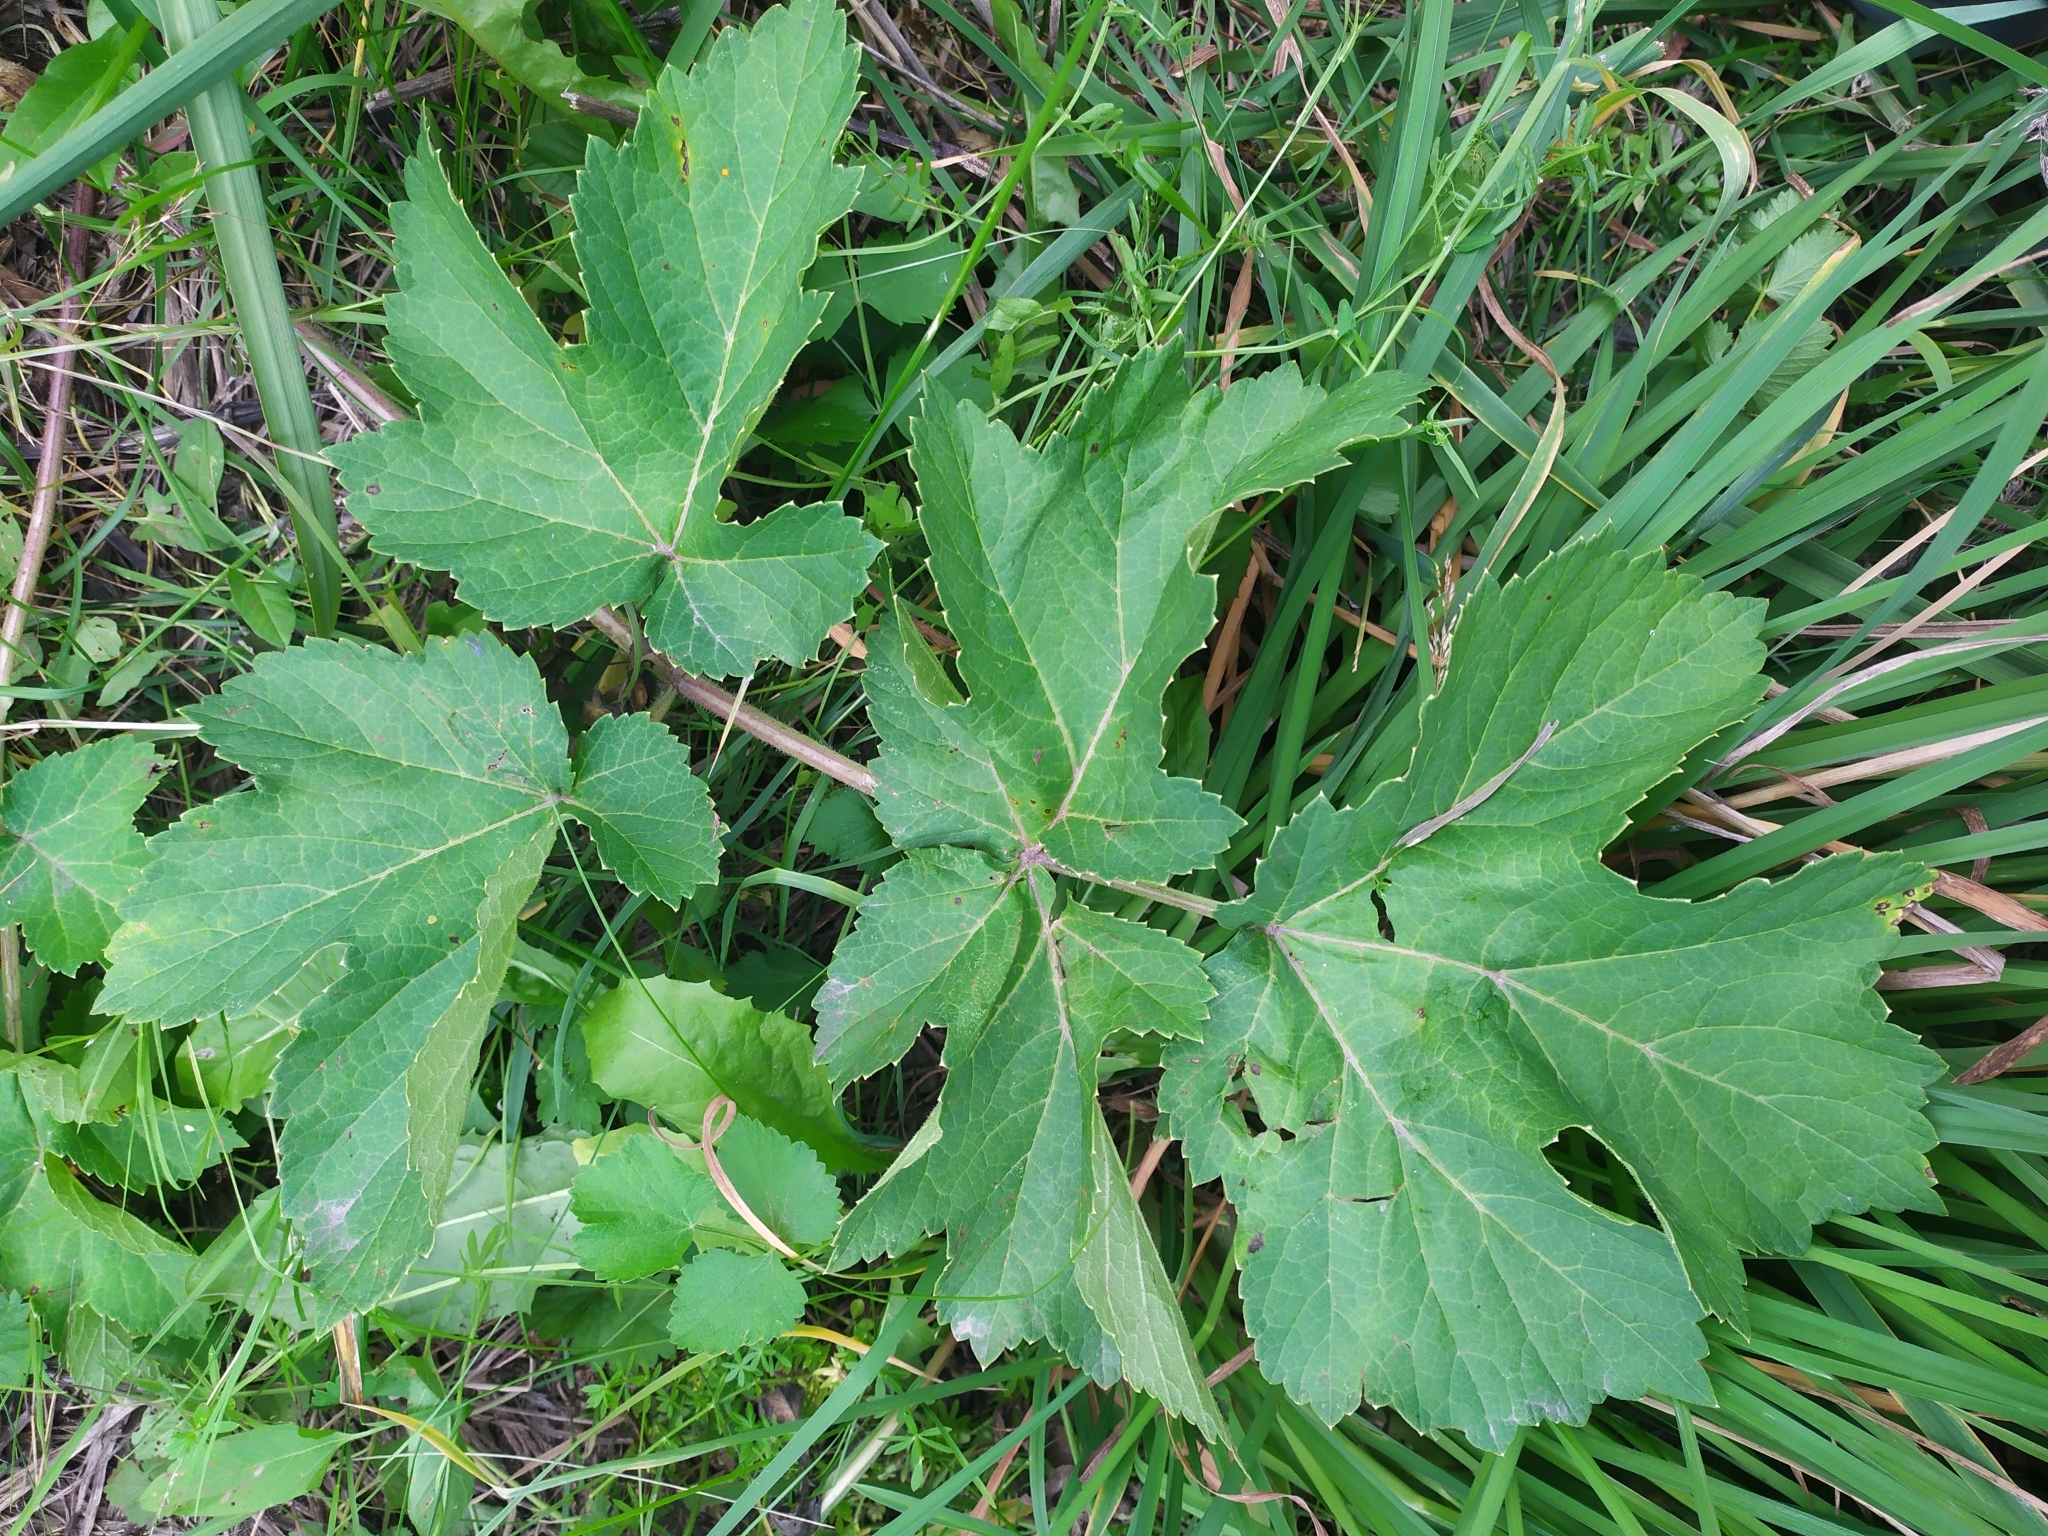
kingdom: Plantae
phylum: Tracheophyta
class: Magnoliopsida
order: Apiales
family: Apiaceae
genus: Heracleum
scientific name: Heracleum sphondylium
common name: Hogweed
